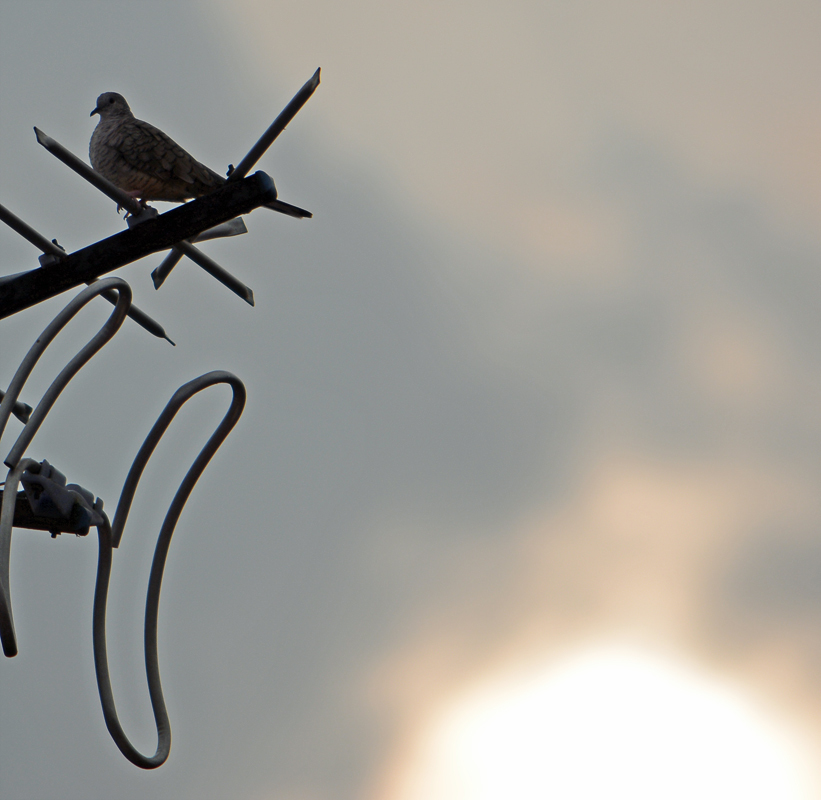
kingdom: Animalia
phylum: Chordata
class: Aves
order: Columbiformes
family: Columbidae
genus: Columbina
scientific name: Columbina inca
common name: Inca dove
